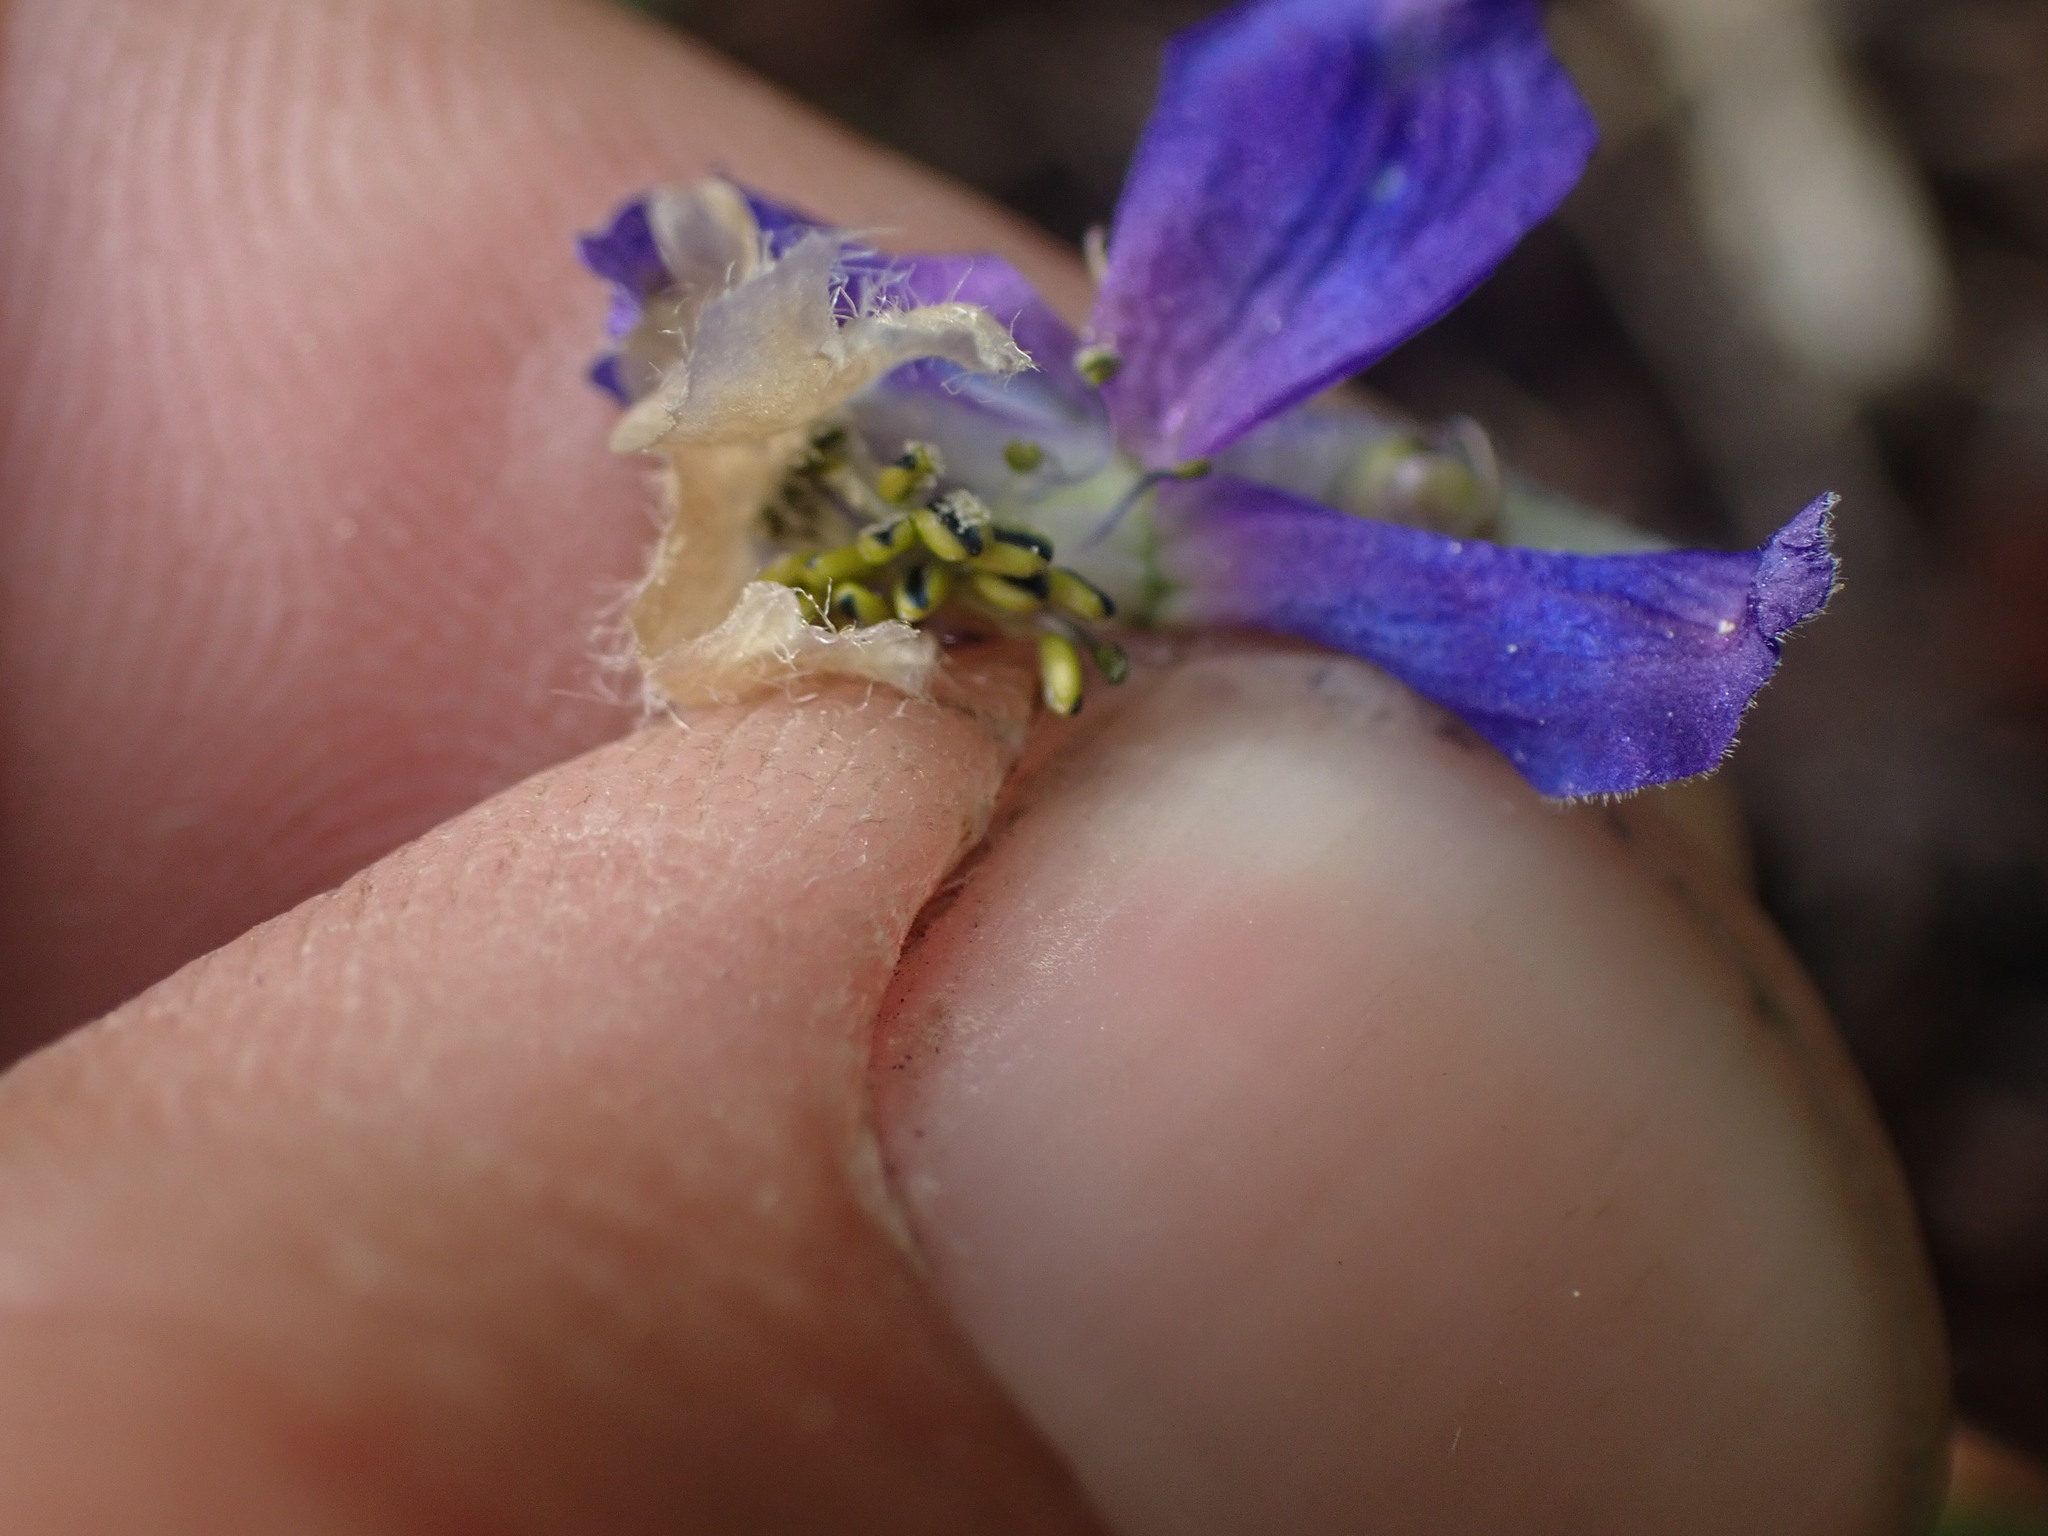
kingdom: Plantae
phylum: Tracheophyta
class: Magnoliopsida
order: Ranunculales
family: Ranunculaceae
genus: Delphinium
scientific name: Delphinium sutherlandii
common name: Sutherland's larkspur
